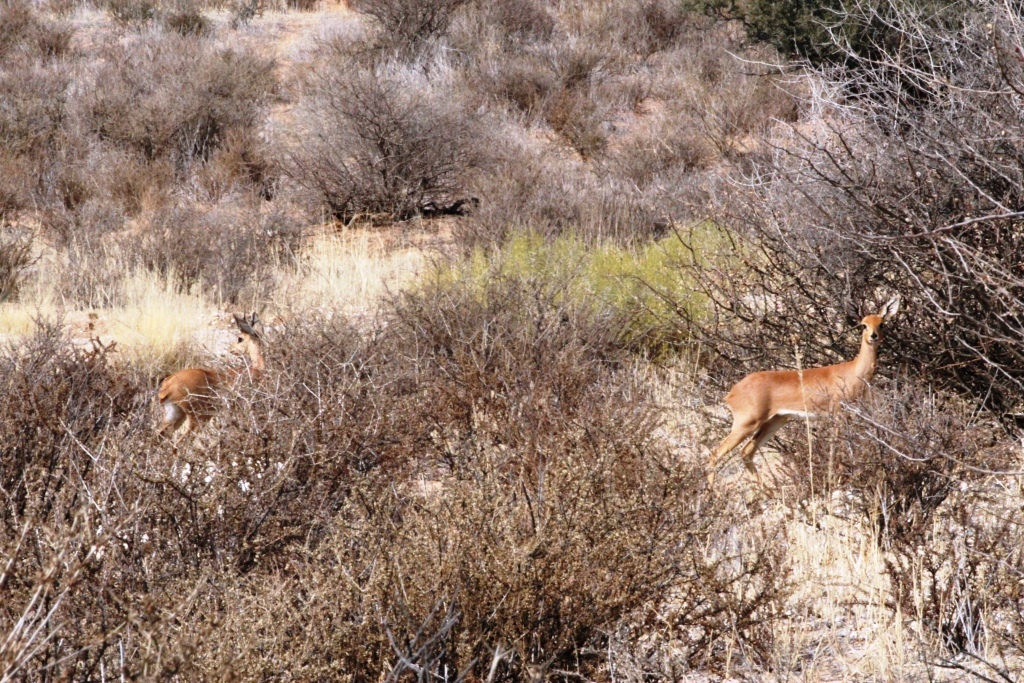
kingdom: Animalia
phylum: Chordata
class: Mammalia
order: Artiodactyla
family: Bovidae
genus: Raphicerus
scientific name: Raphicerus campestris
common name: Steenbok
